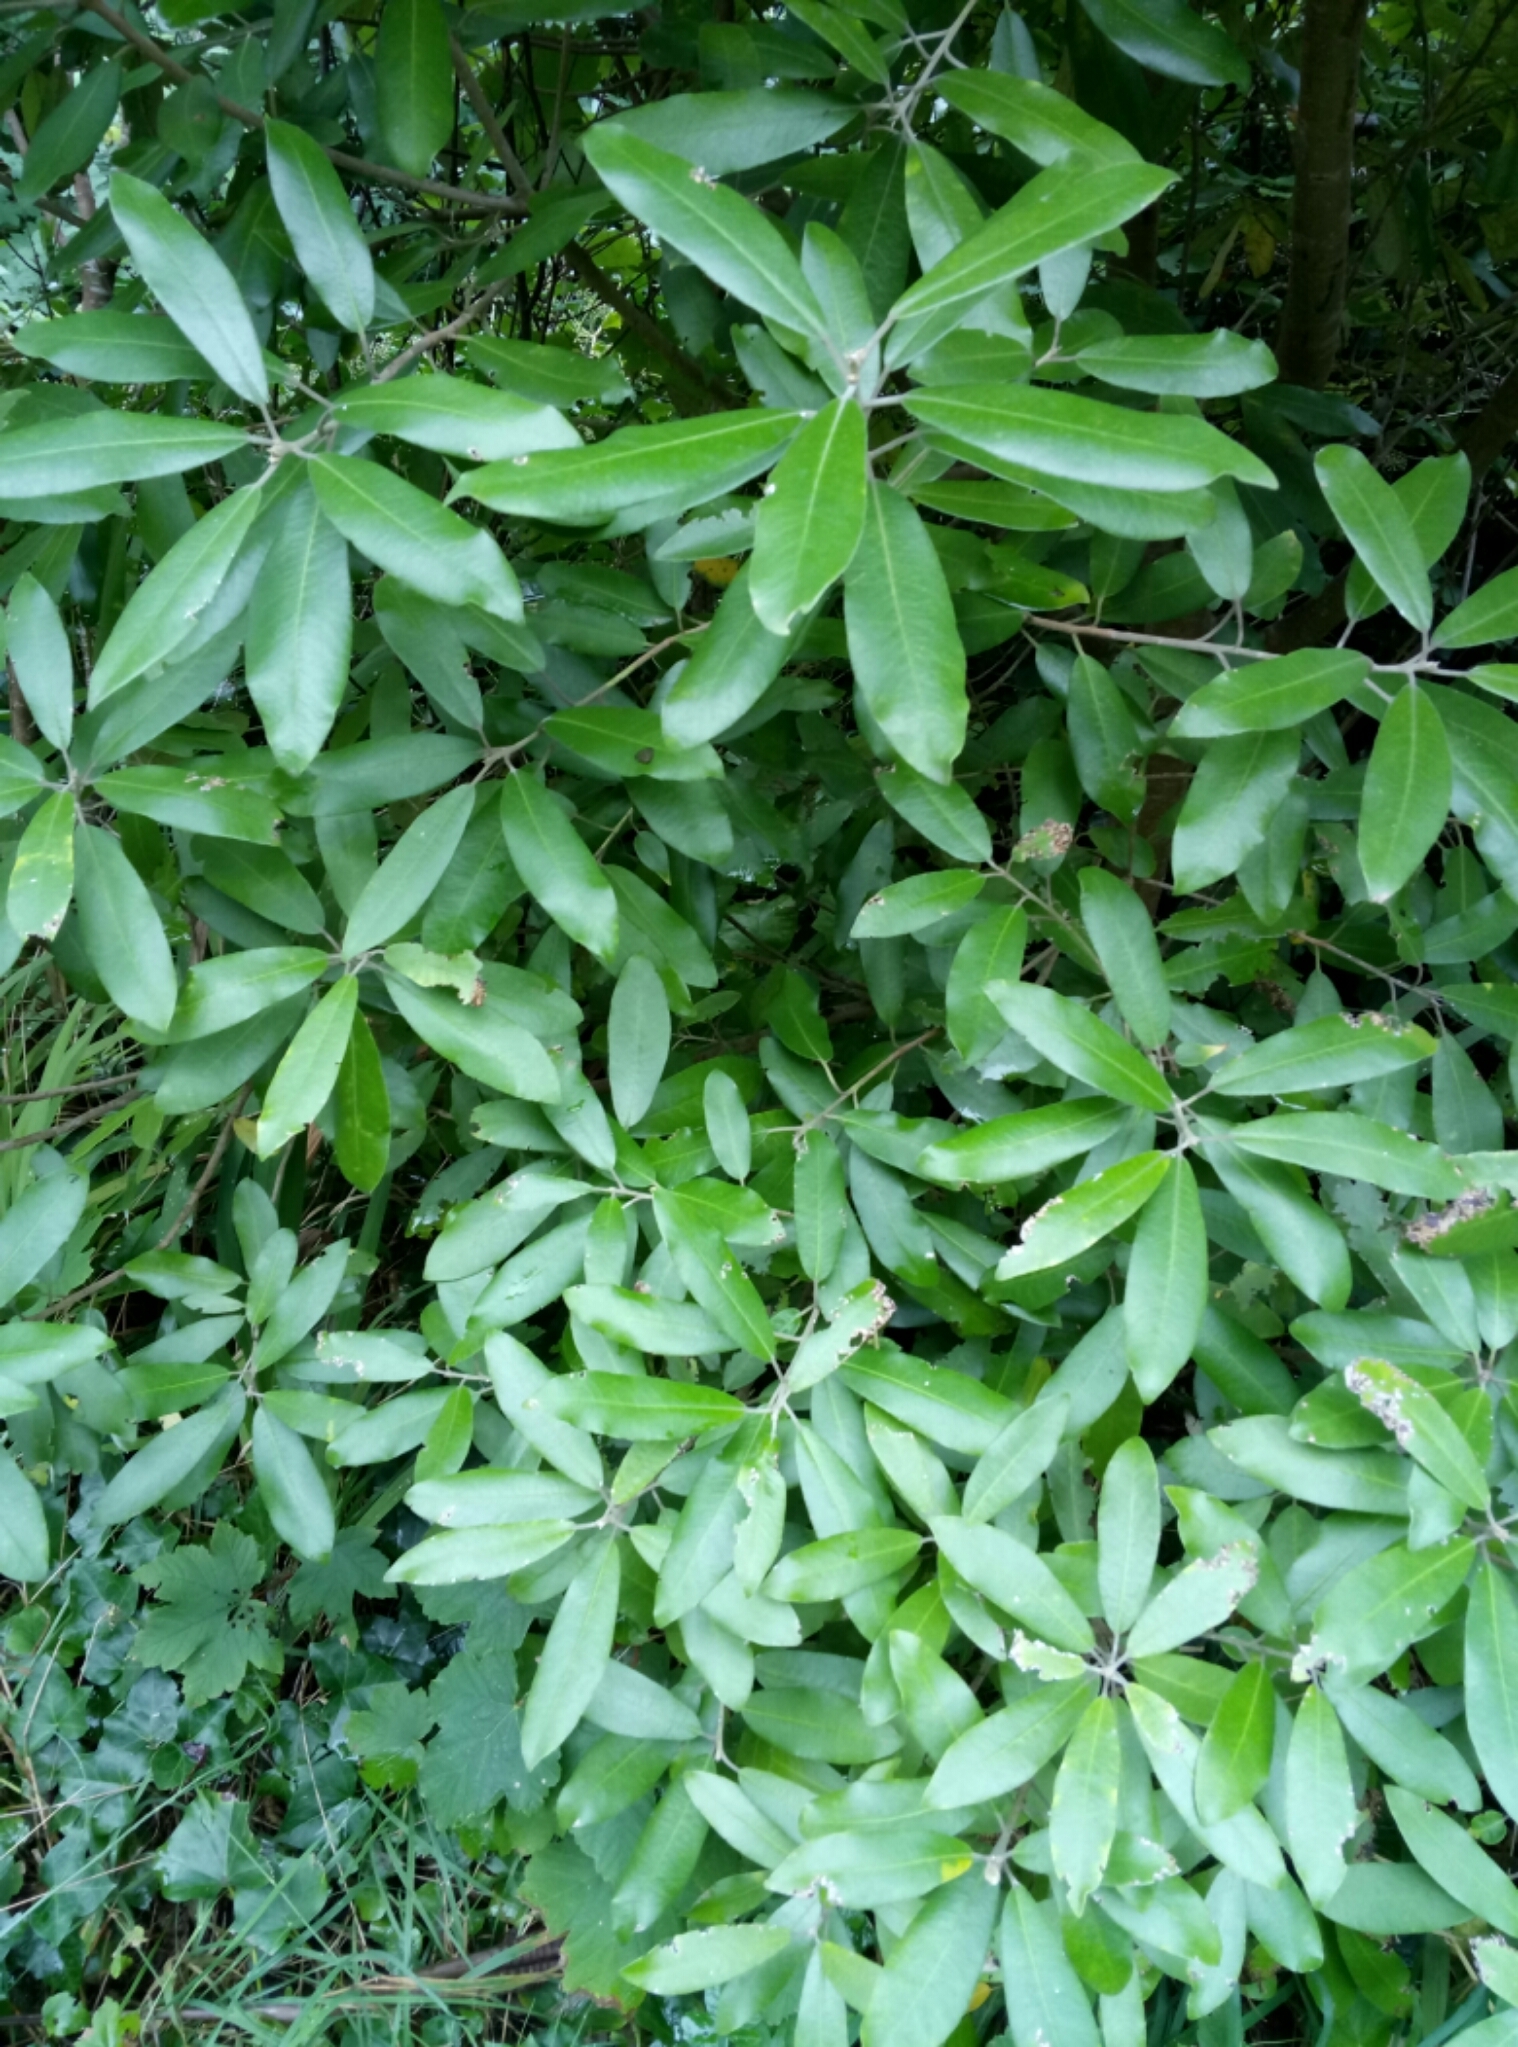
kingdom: Plantae
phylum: Tracheophyta
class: Magnoliopsida
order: Apiales
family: Pittosporaceae
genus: Pittosporum
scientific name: Pittosporum ralphii
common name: Ralph's desertwillow
